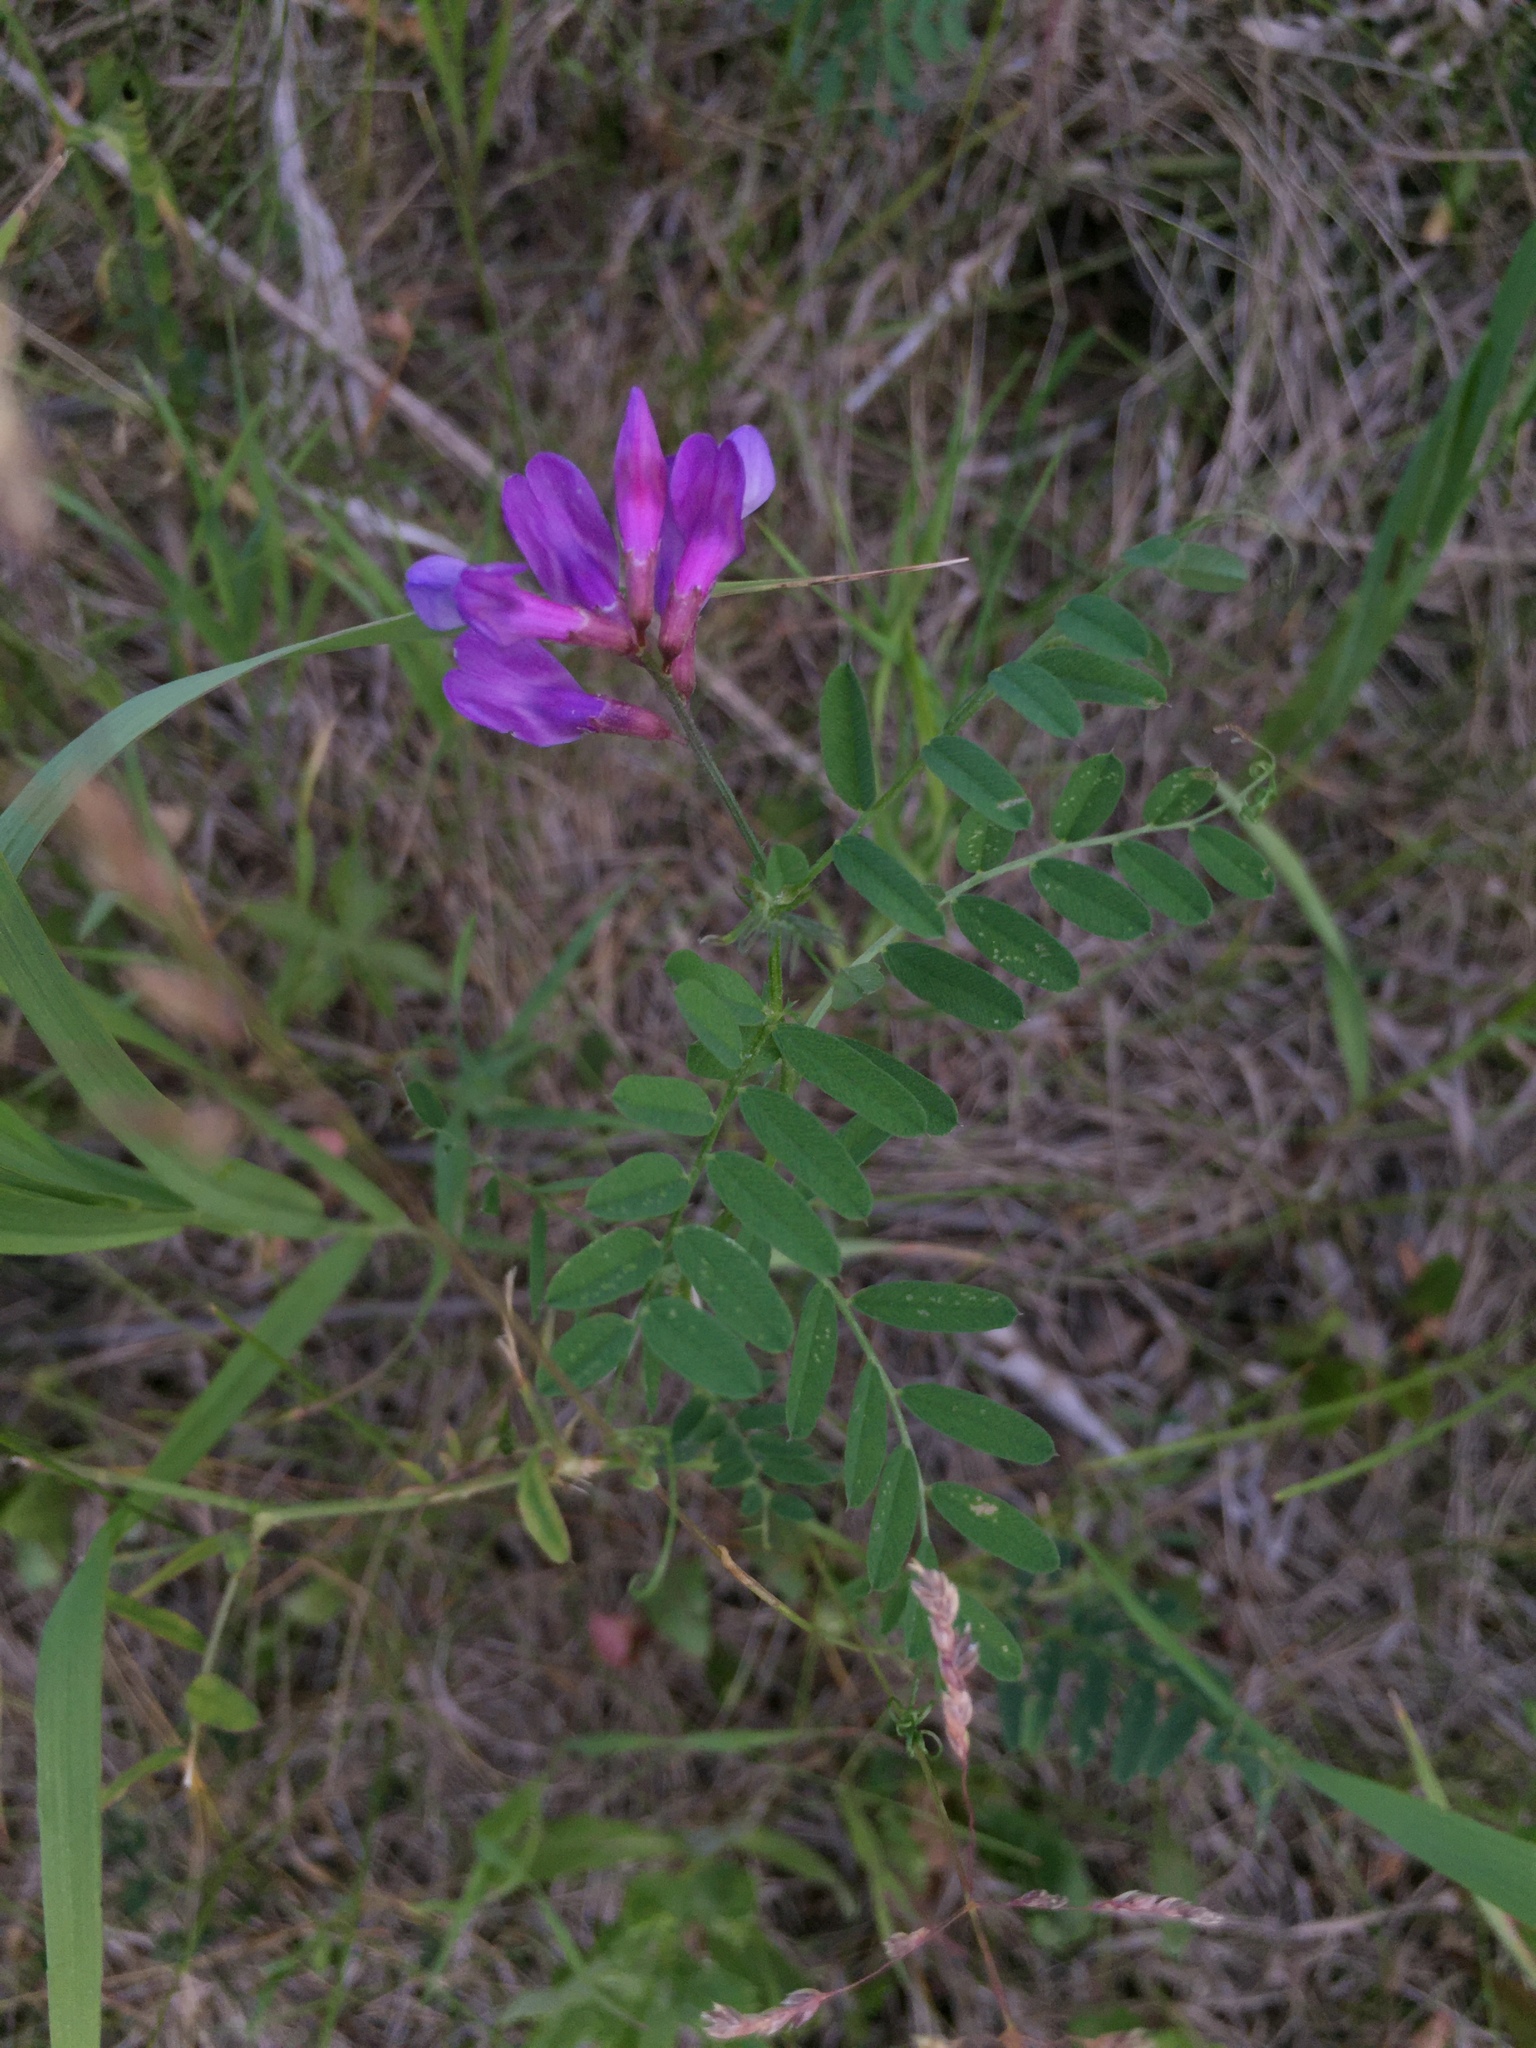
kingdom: Plantae
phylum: Tracheophyta
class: Magnoliopsida
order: Fabales
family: Fabaceae
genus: Vicia
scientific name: Vicia americana
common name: American vetch
